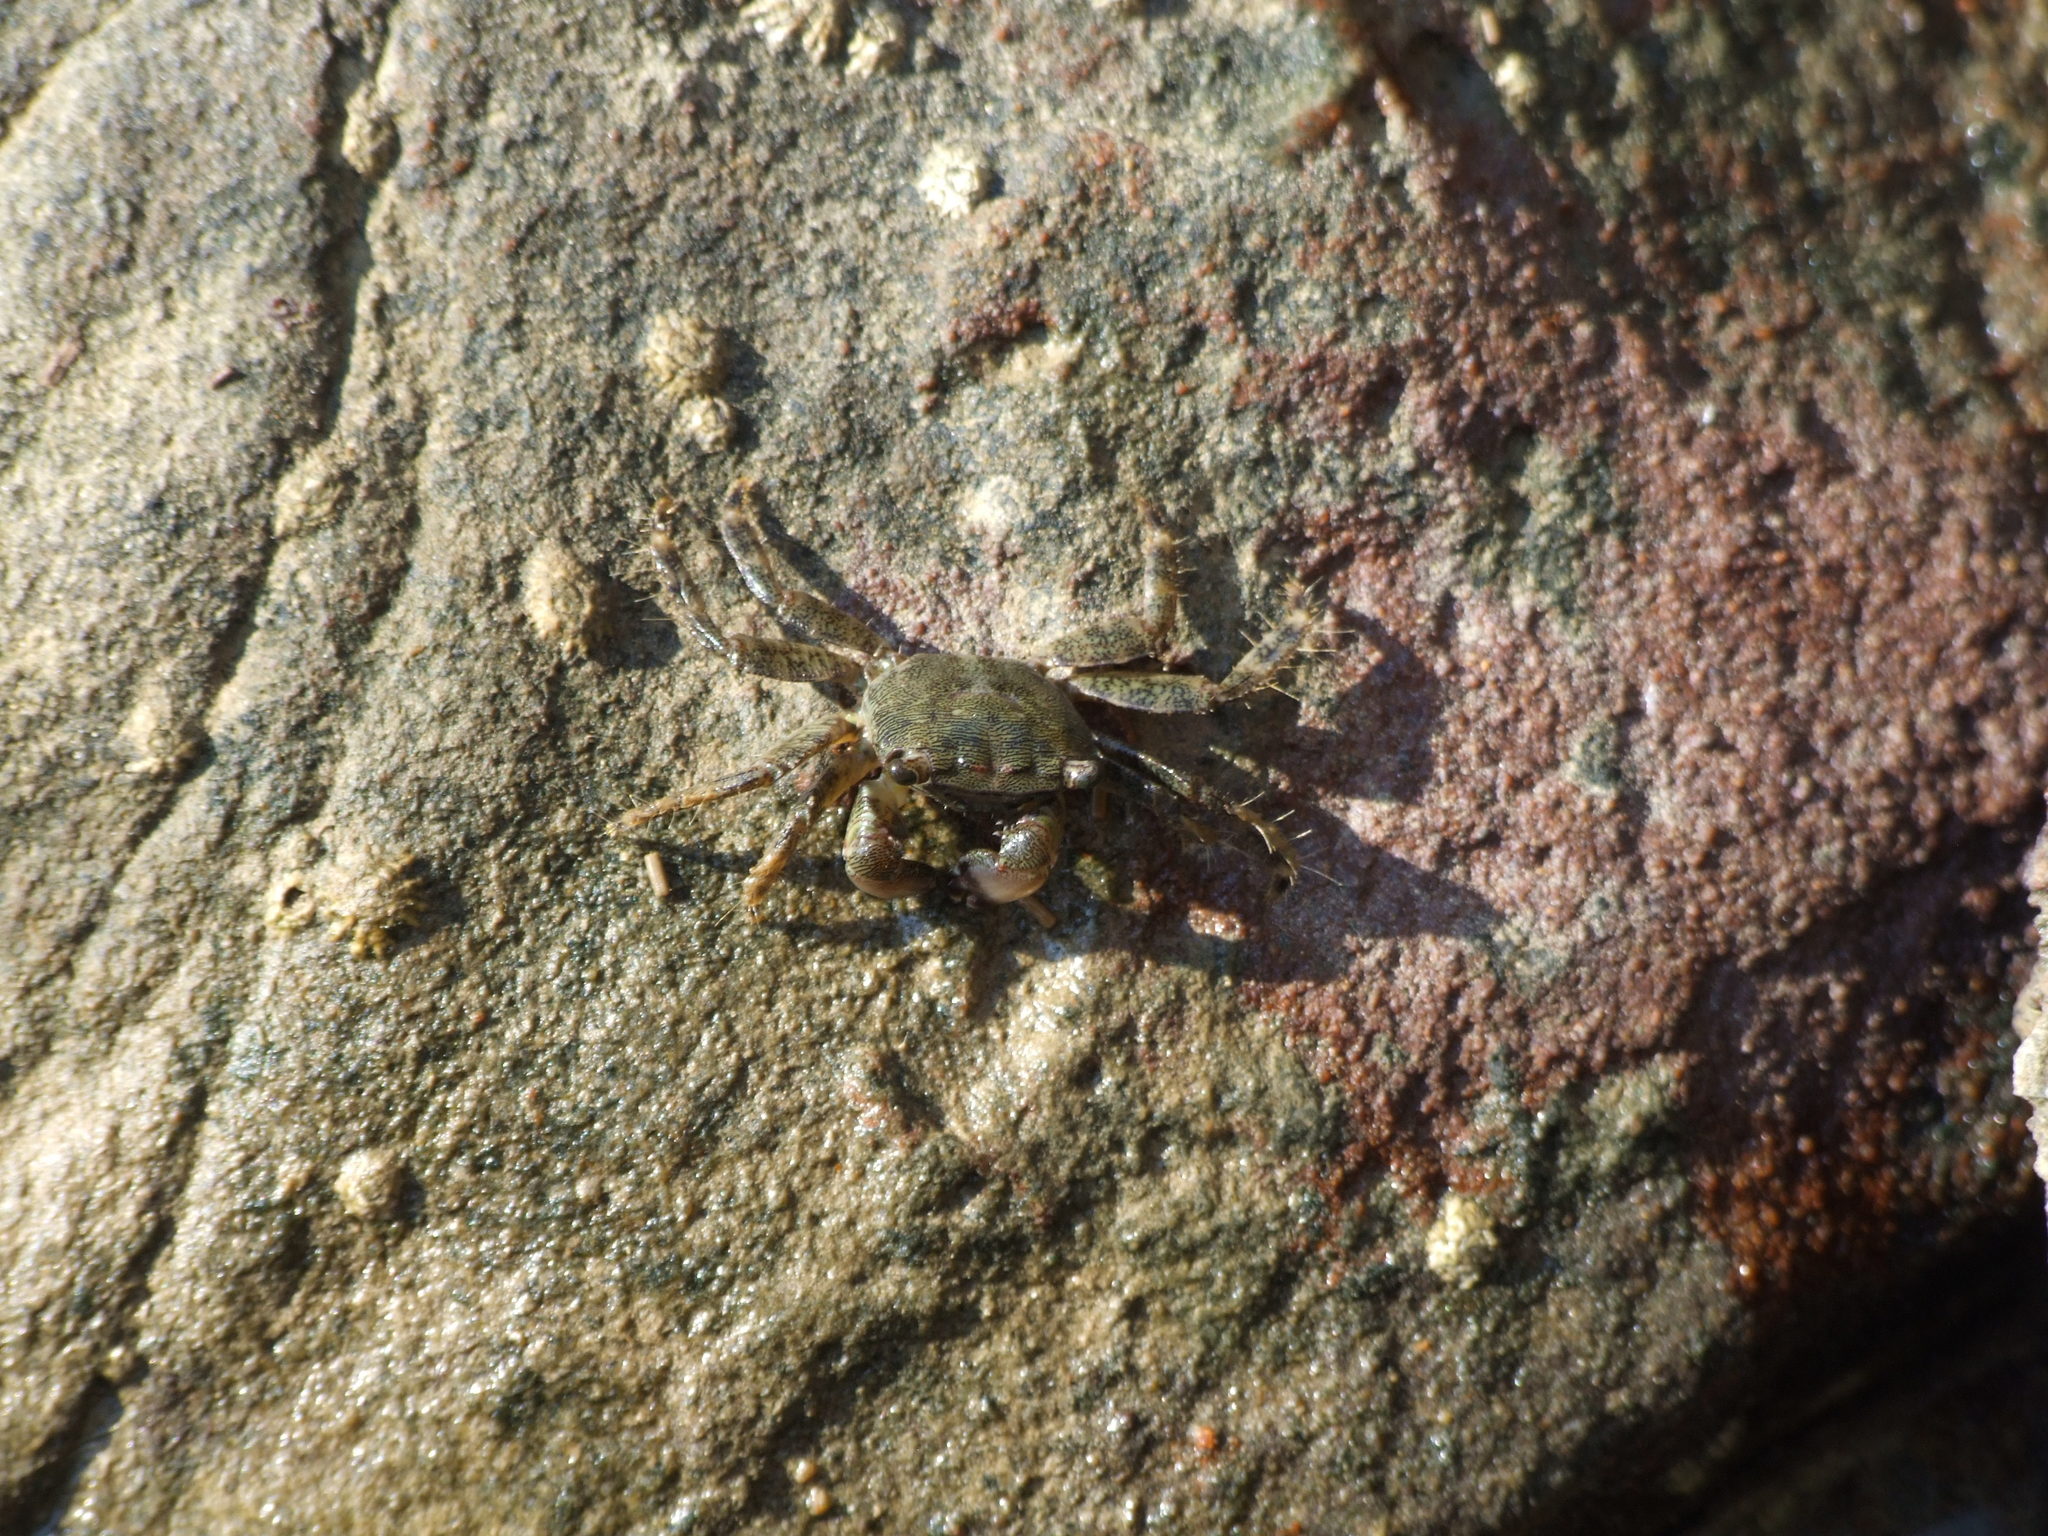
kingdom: Animalia
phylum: Arthropoda
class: Malacostraca
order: Decapoda
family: Grapsidae
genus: Pachygrapsus
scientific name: Pachygrapsus marmoratus
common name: Marbled rock crab
